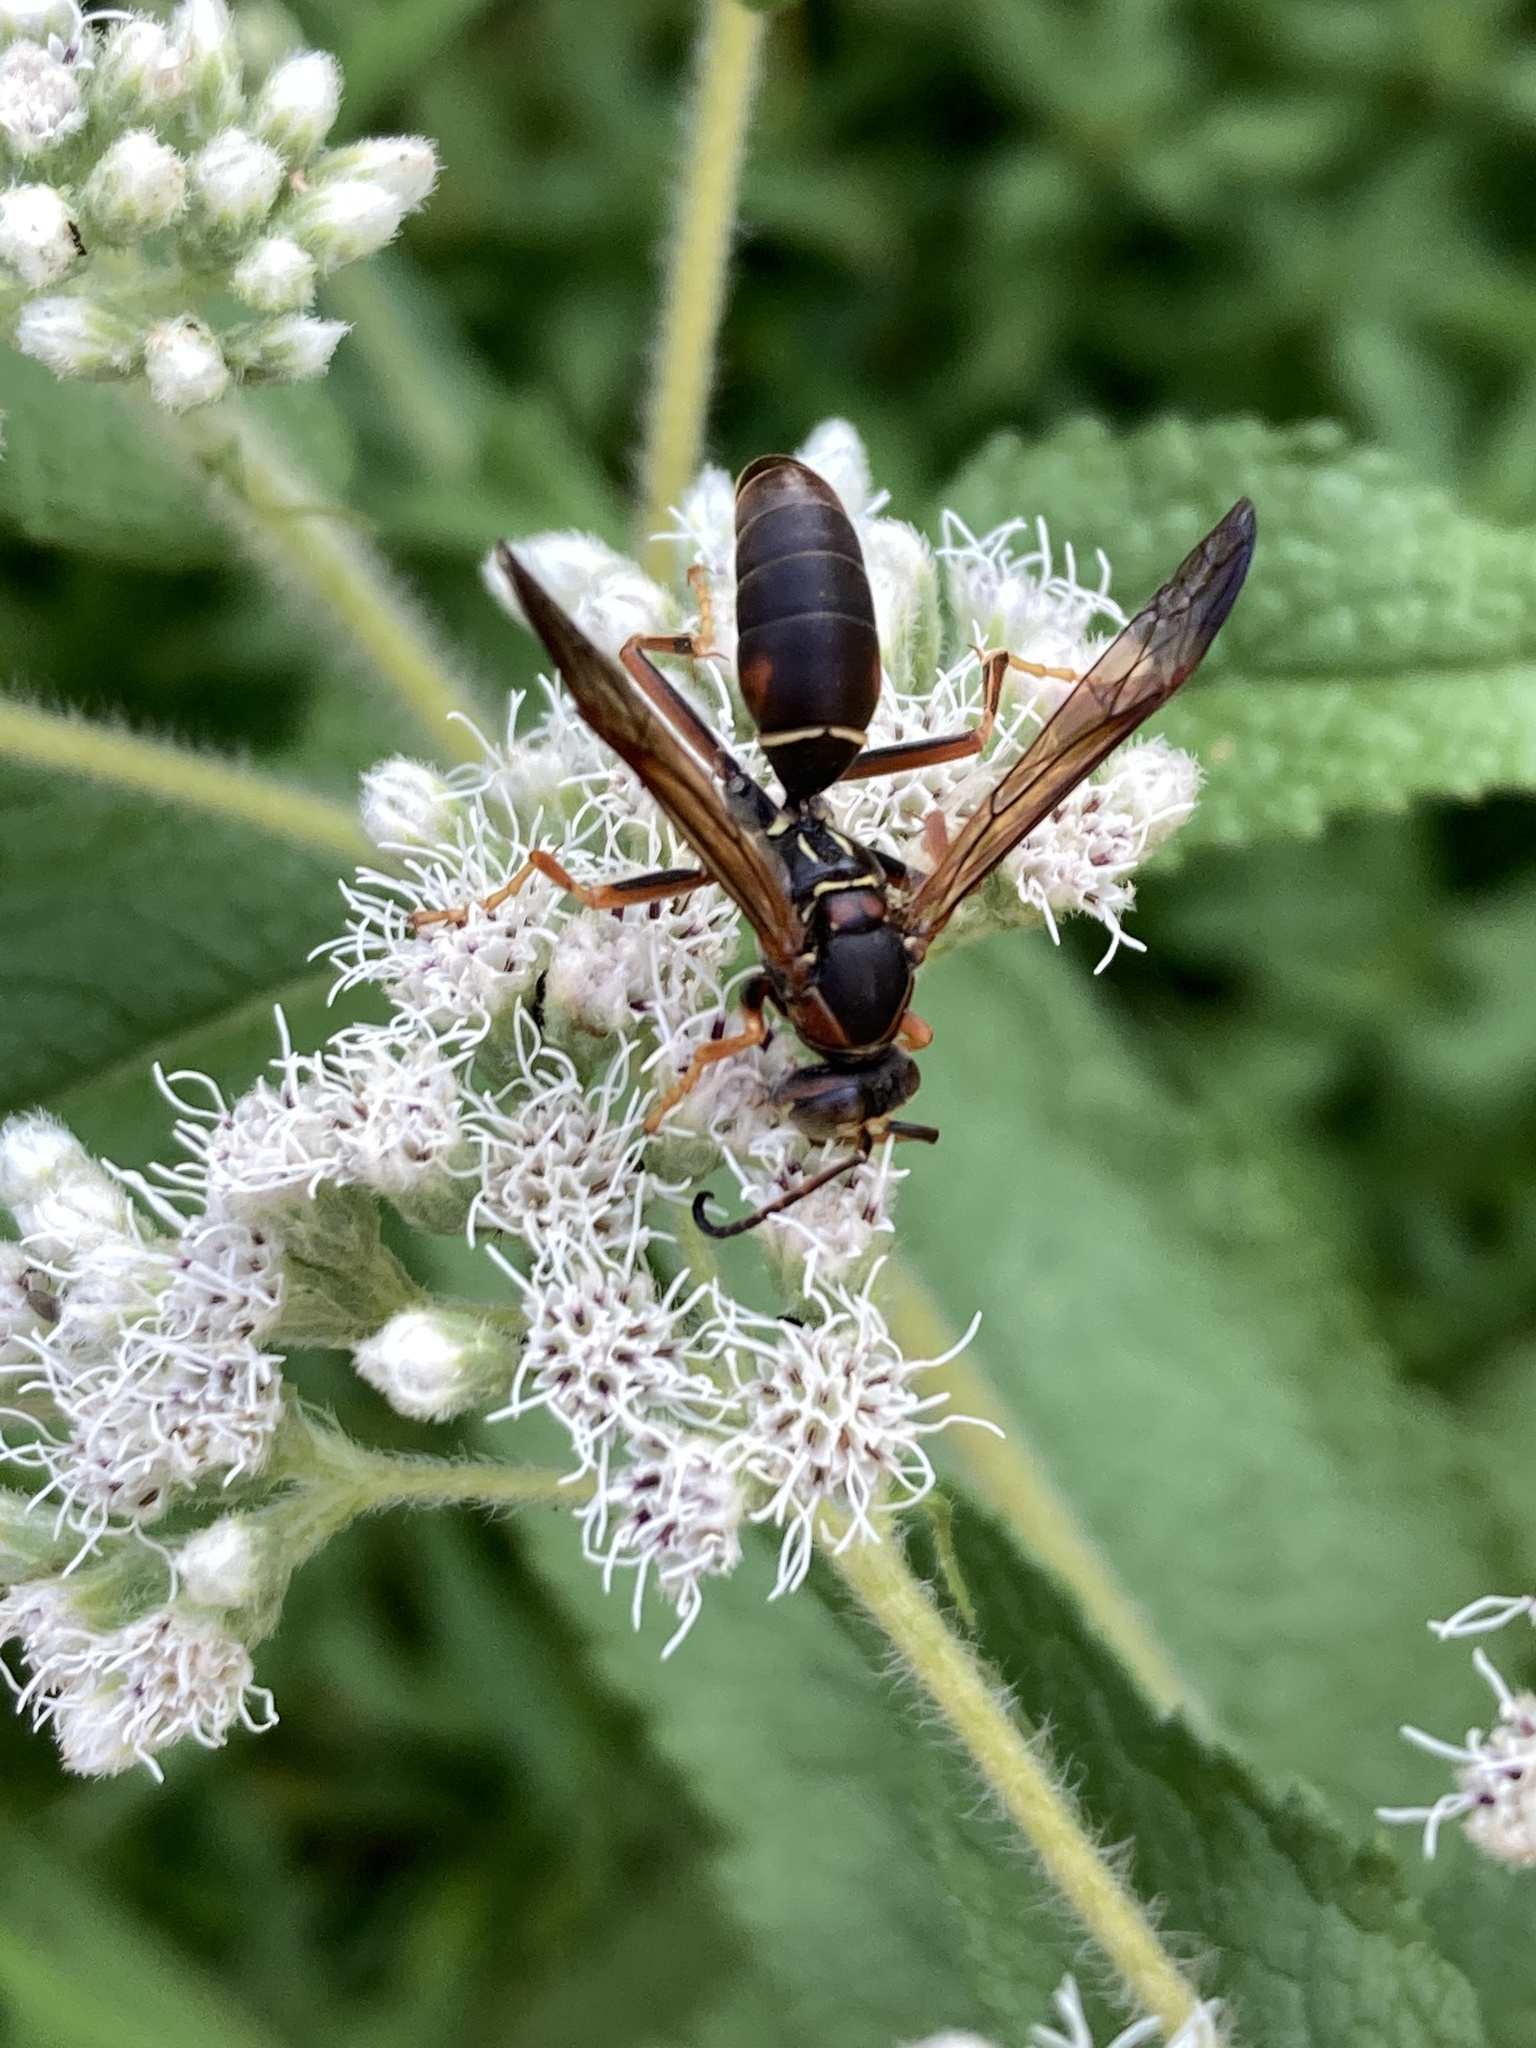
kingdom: Animalia
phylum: Arthropoda
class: Insecta
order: Hymenoptera
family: Eumenidae
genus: Polistes
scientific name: Polistes fuscatus
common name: Dark paper wasp
